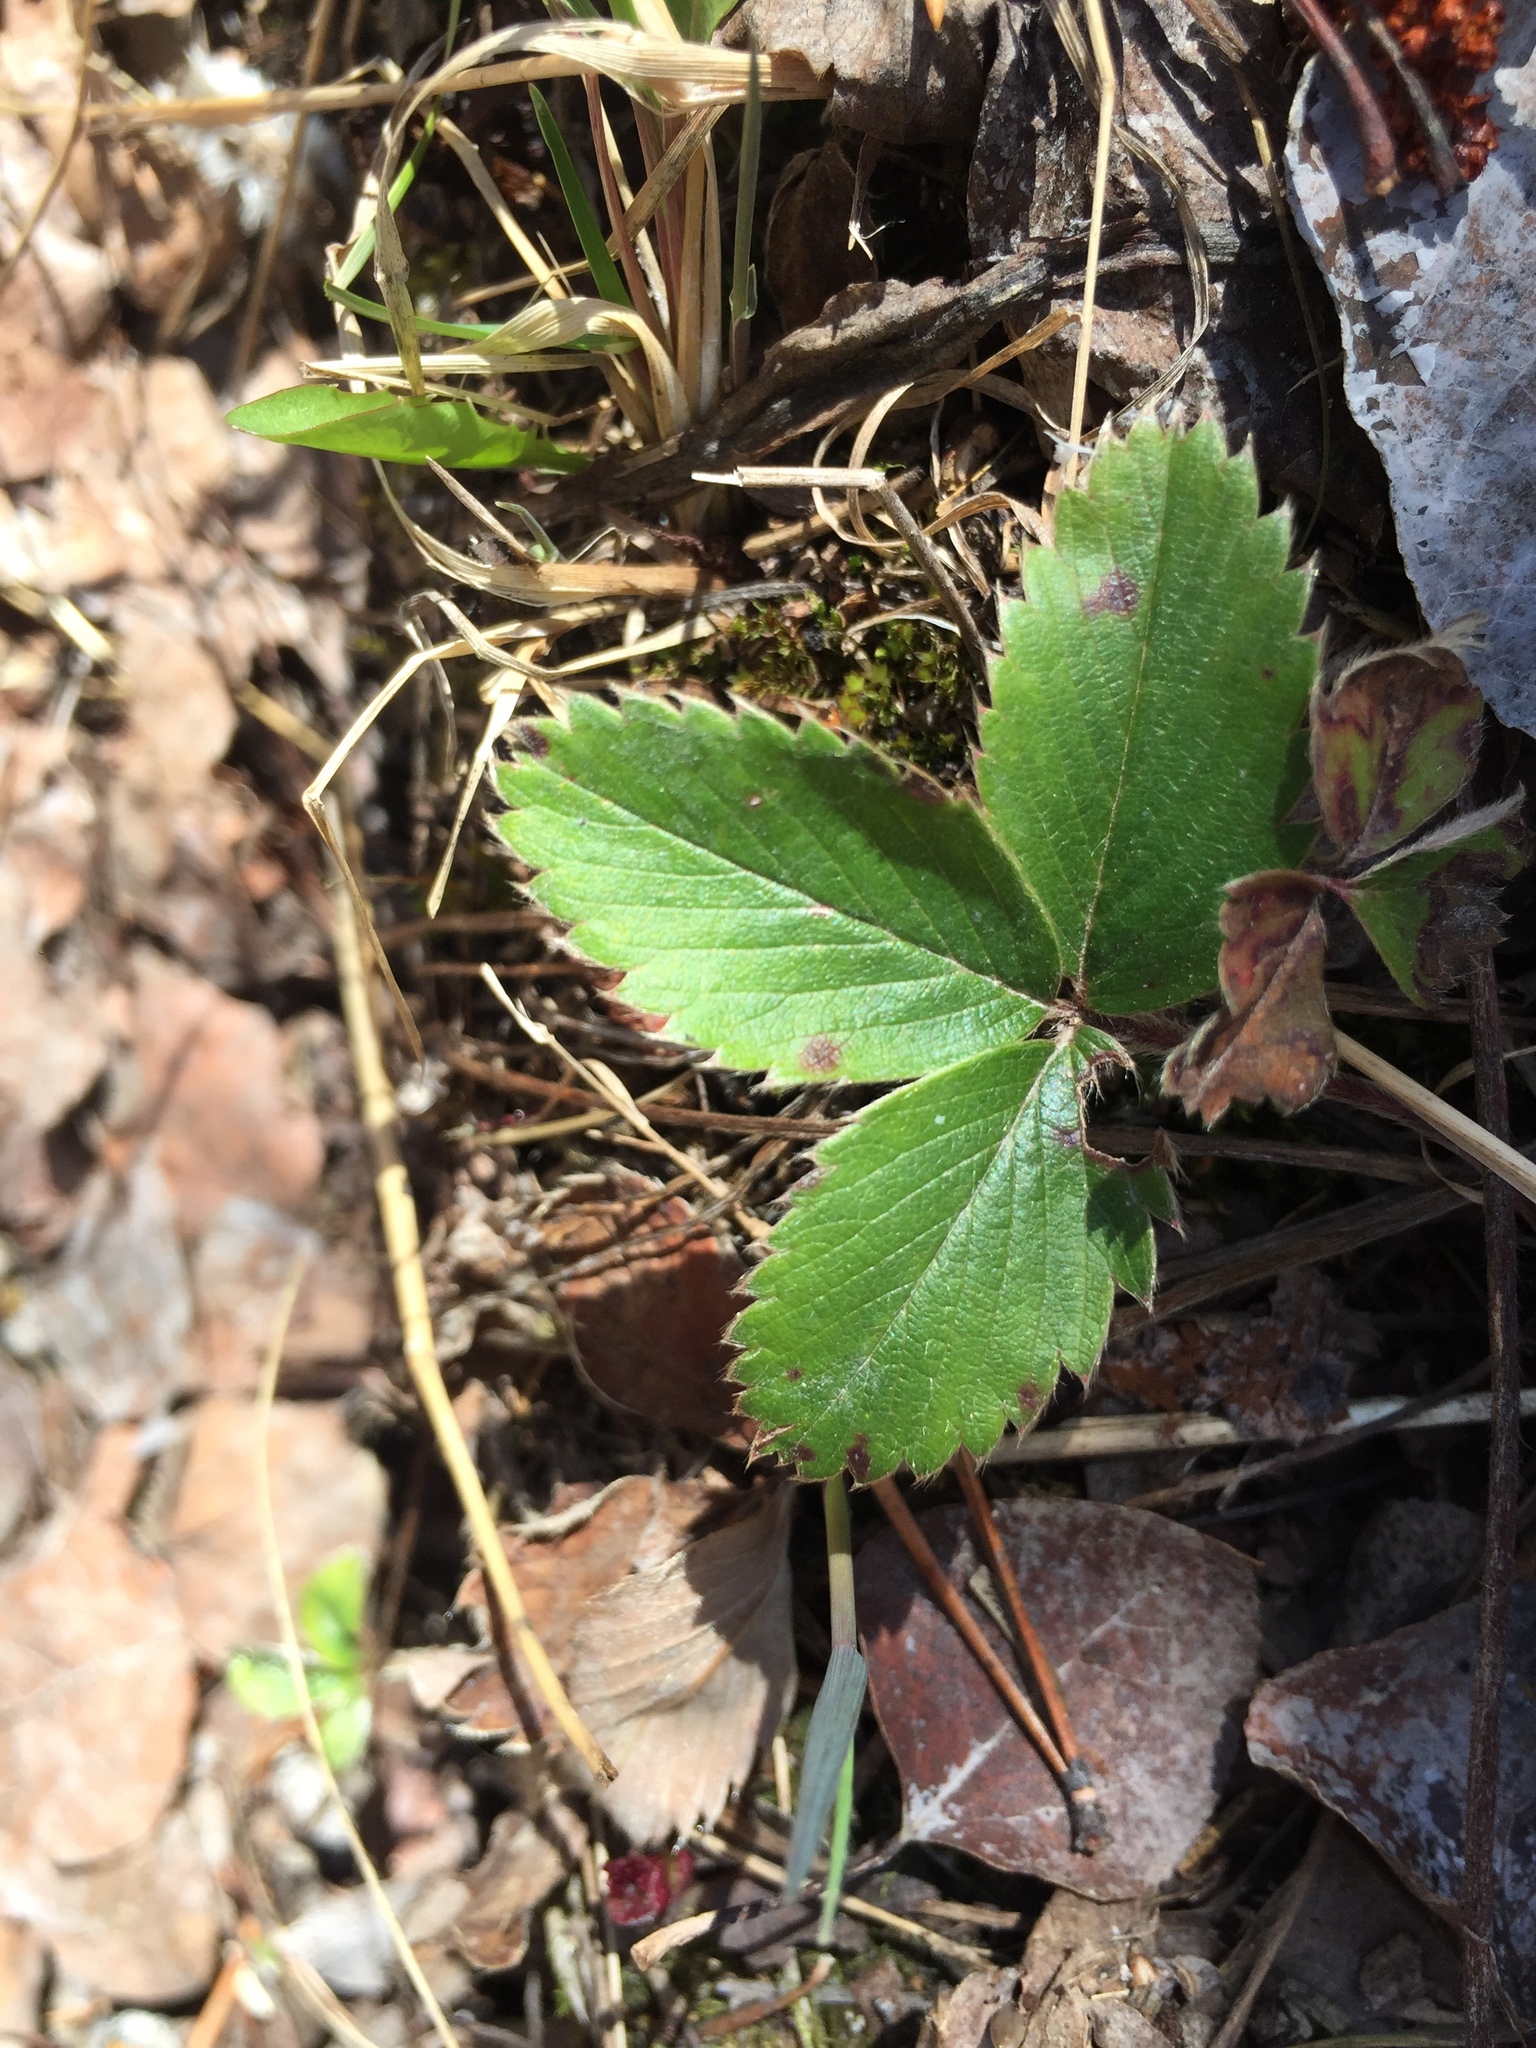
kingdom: Plantae
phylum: Tracheophyta
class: Magnoliopsida
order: Rosales
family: Rosaceae
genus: Fragaria
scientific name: Fragaria virginiana
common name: Thickleaved wild strawberry
